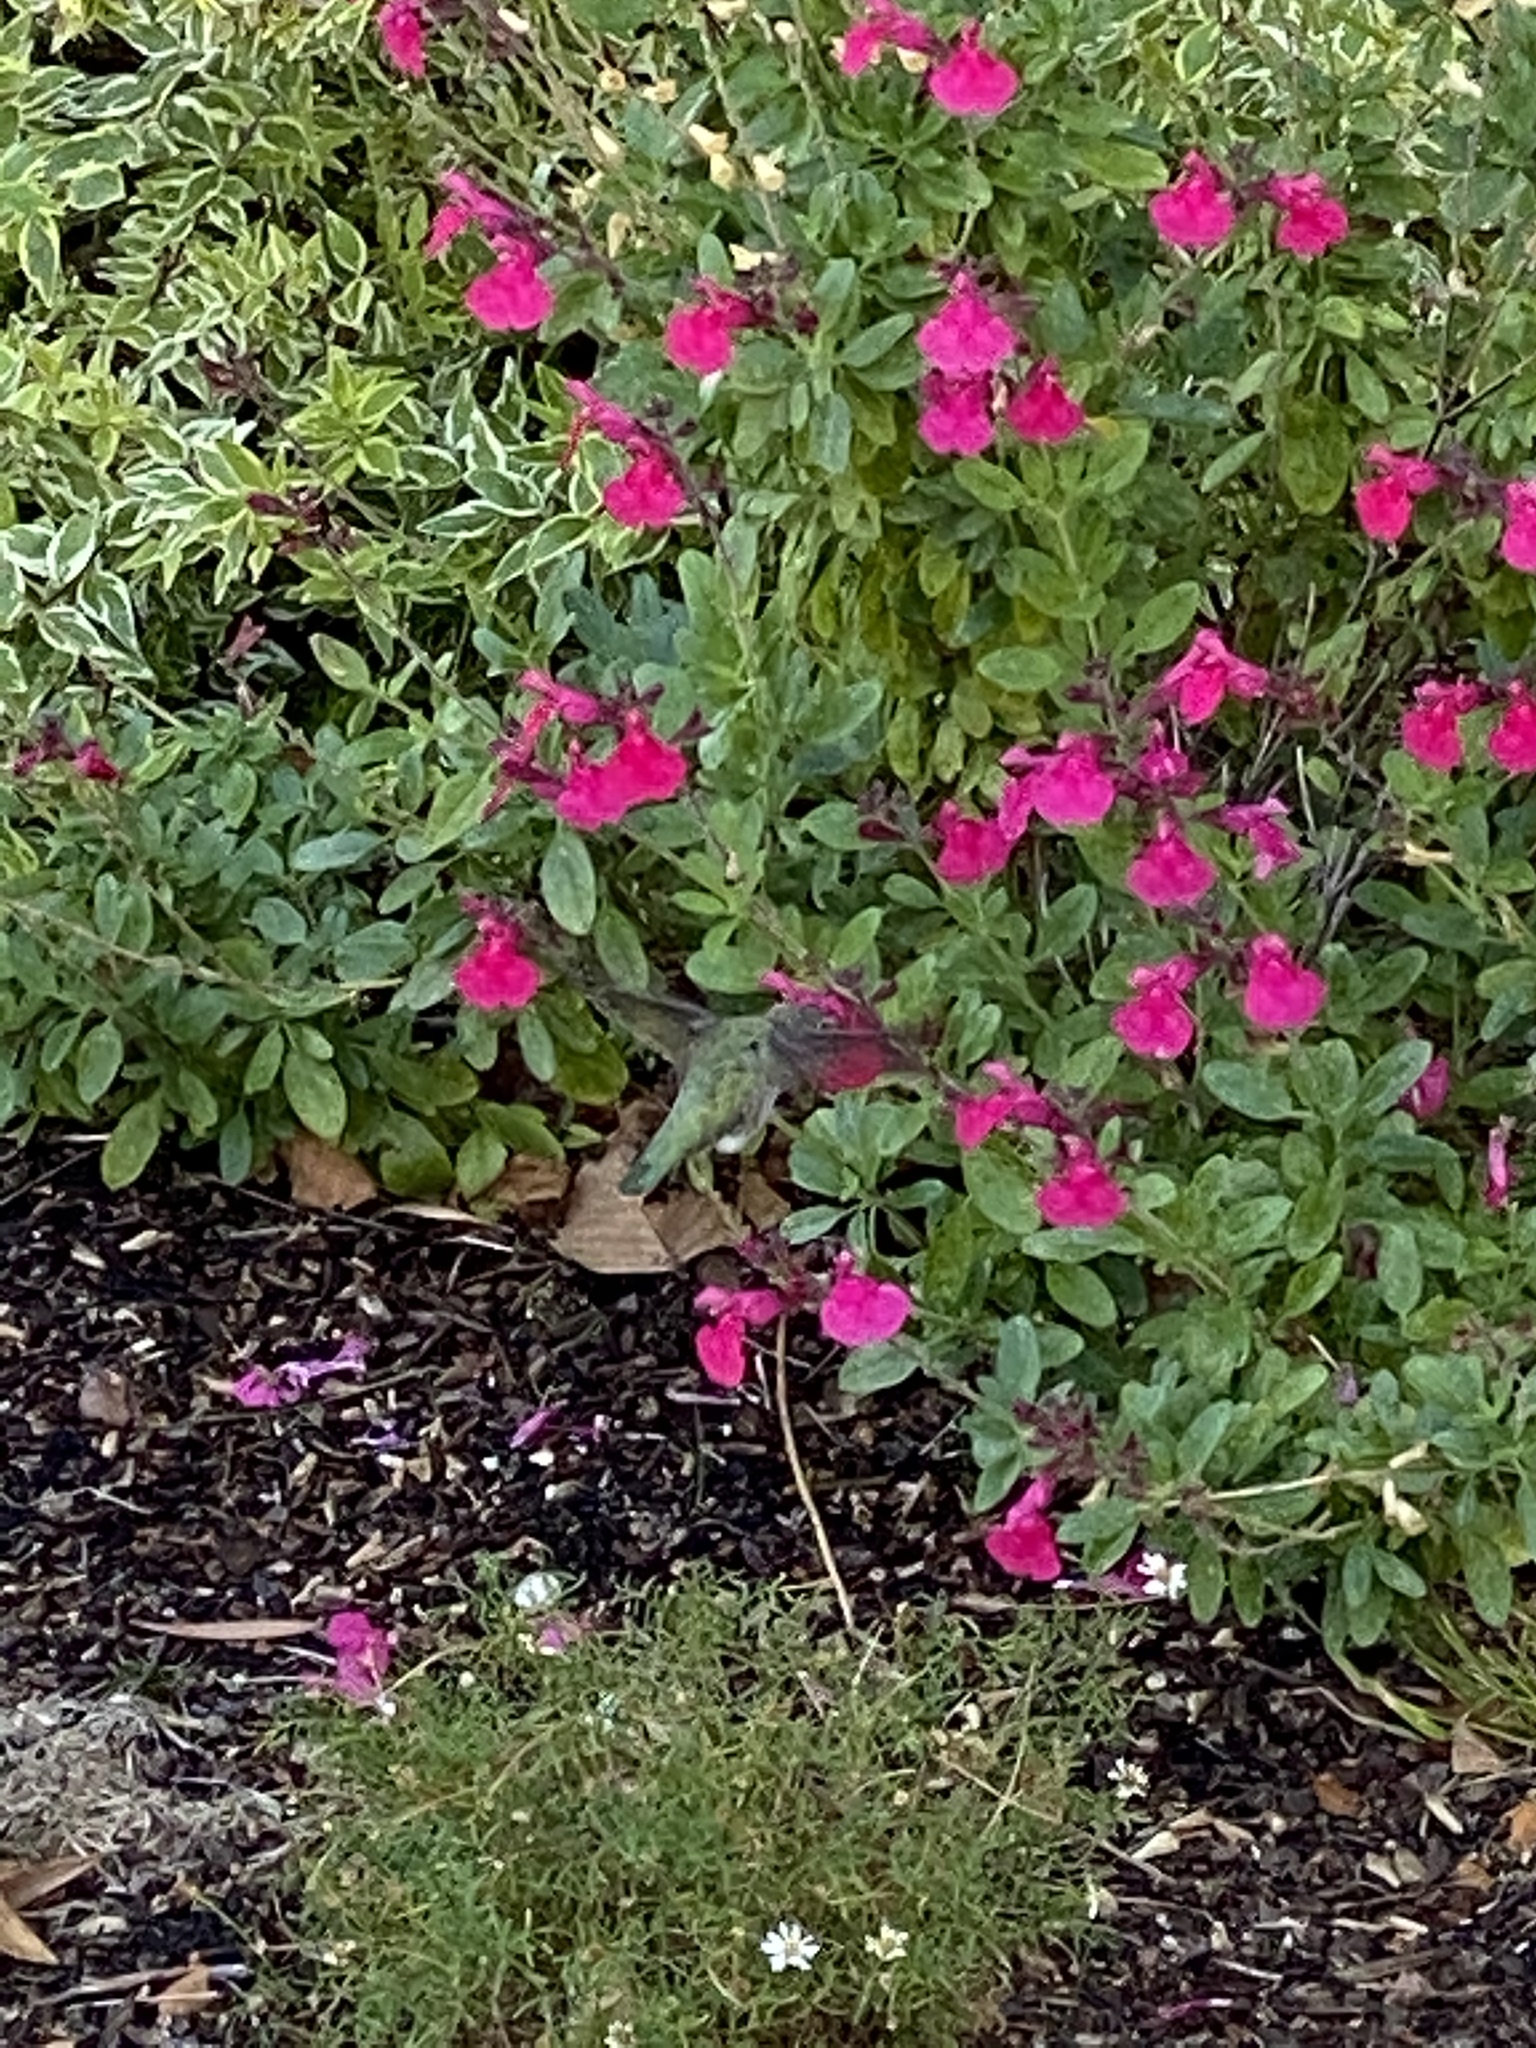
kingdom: Animalia
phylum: Chordata
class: Aves
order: Apodiformes
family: Trochilidae
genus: Calypte
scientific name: Calypte anna
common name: Anna's hummingbird
